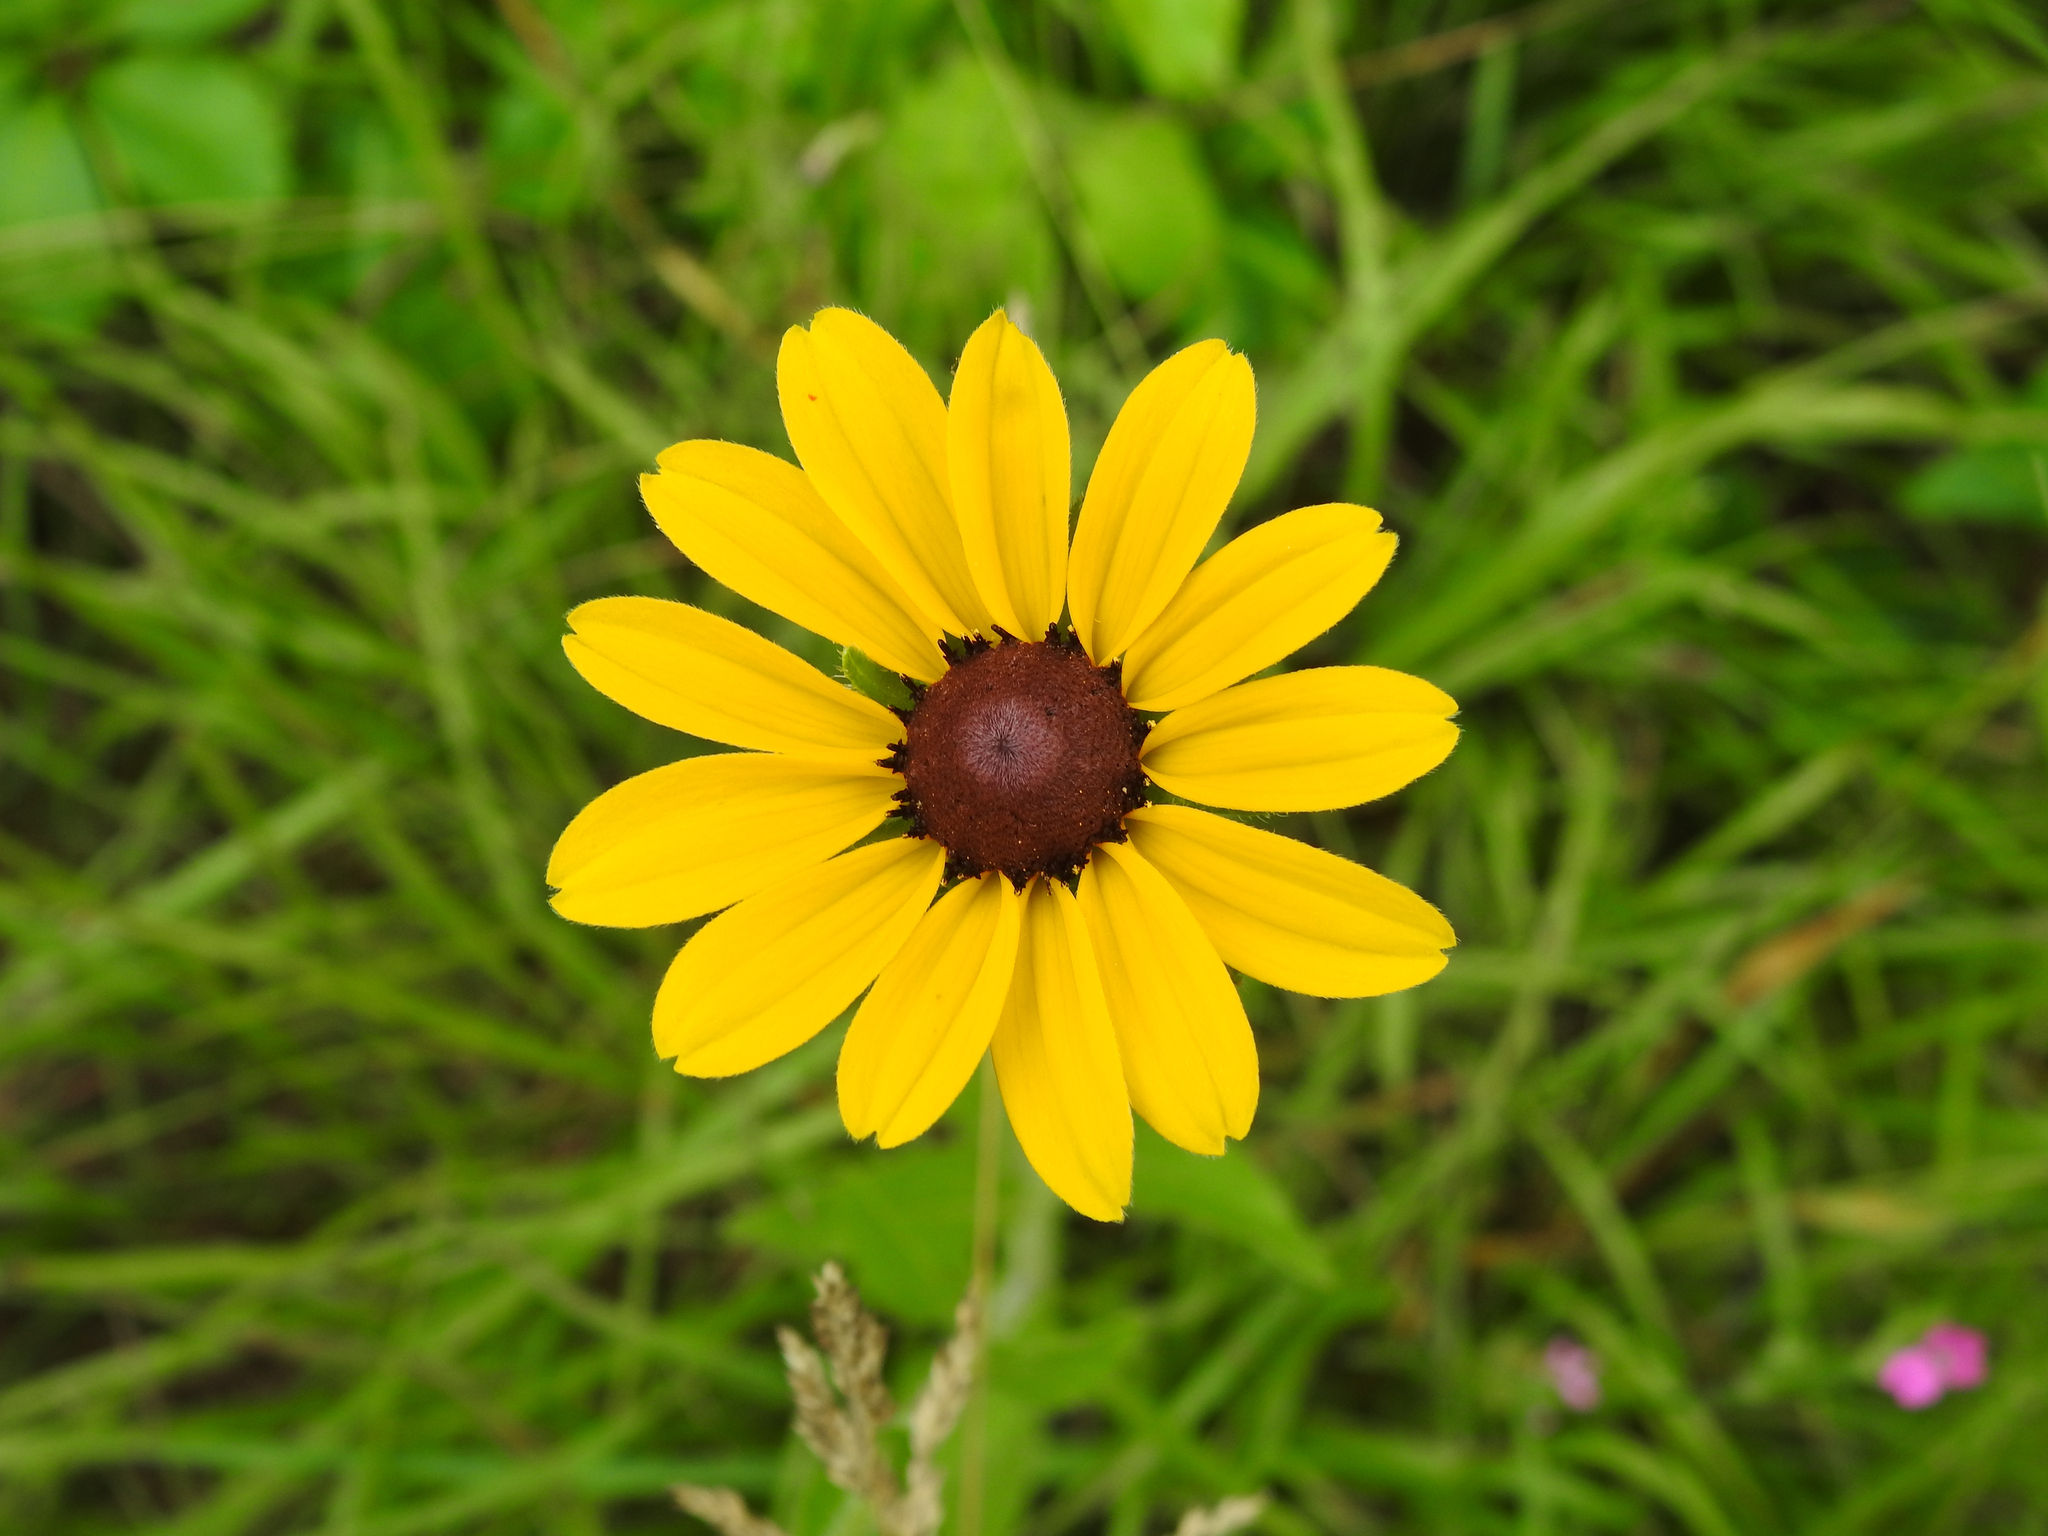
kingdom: Plantae
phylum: Tracheophyta
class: Magnoliopsida
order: Asterales
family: Asteraceae
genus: Rudbeckia
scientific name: Rudbeckia hirta
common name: Black-eyed-susan
